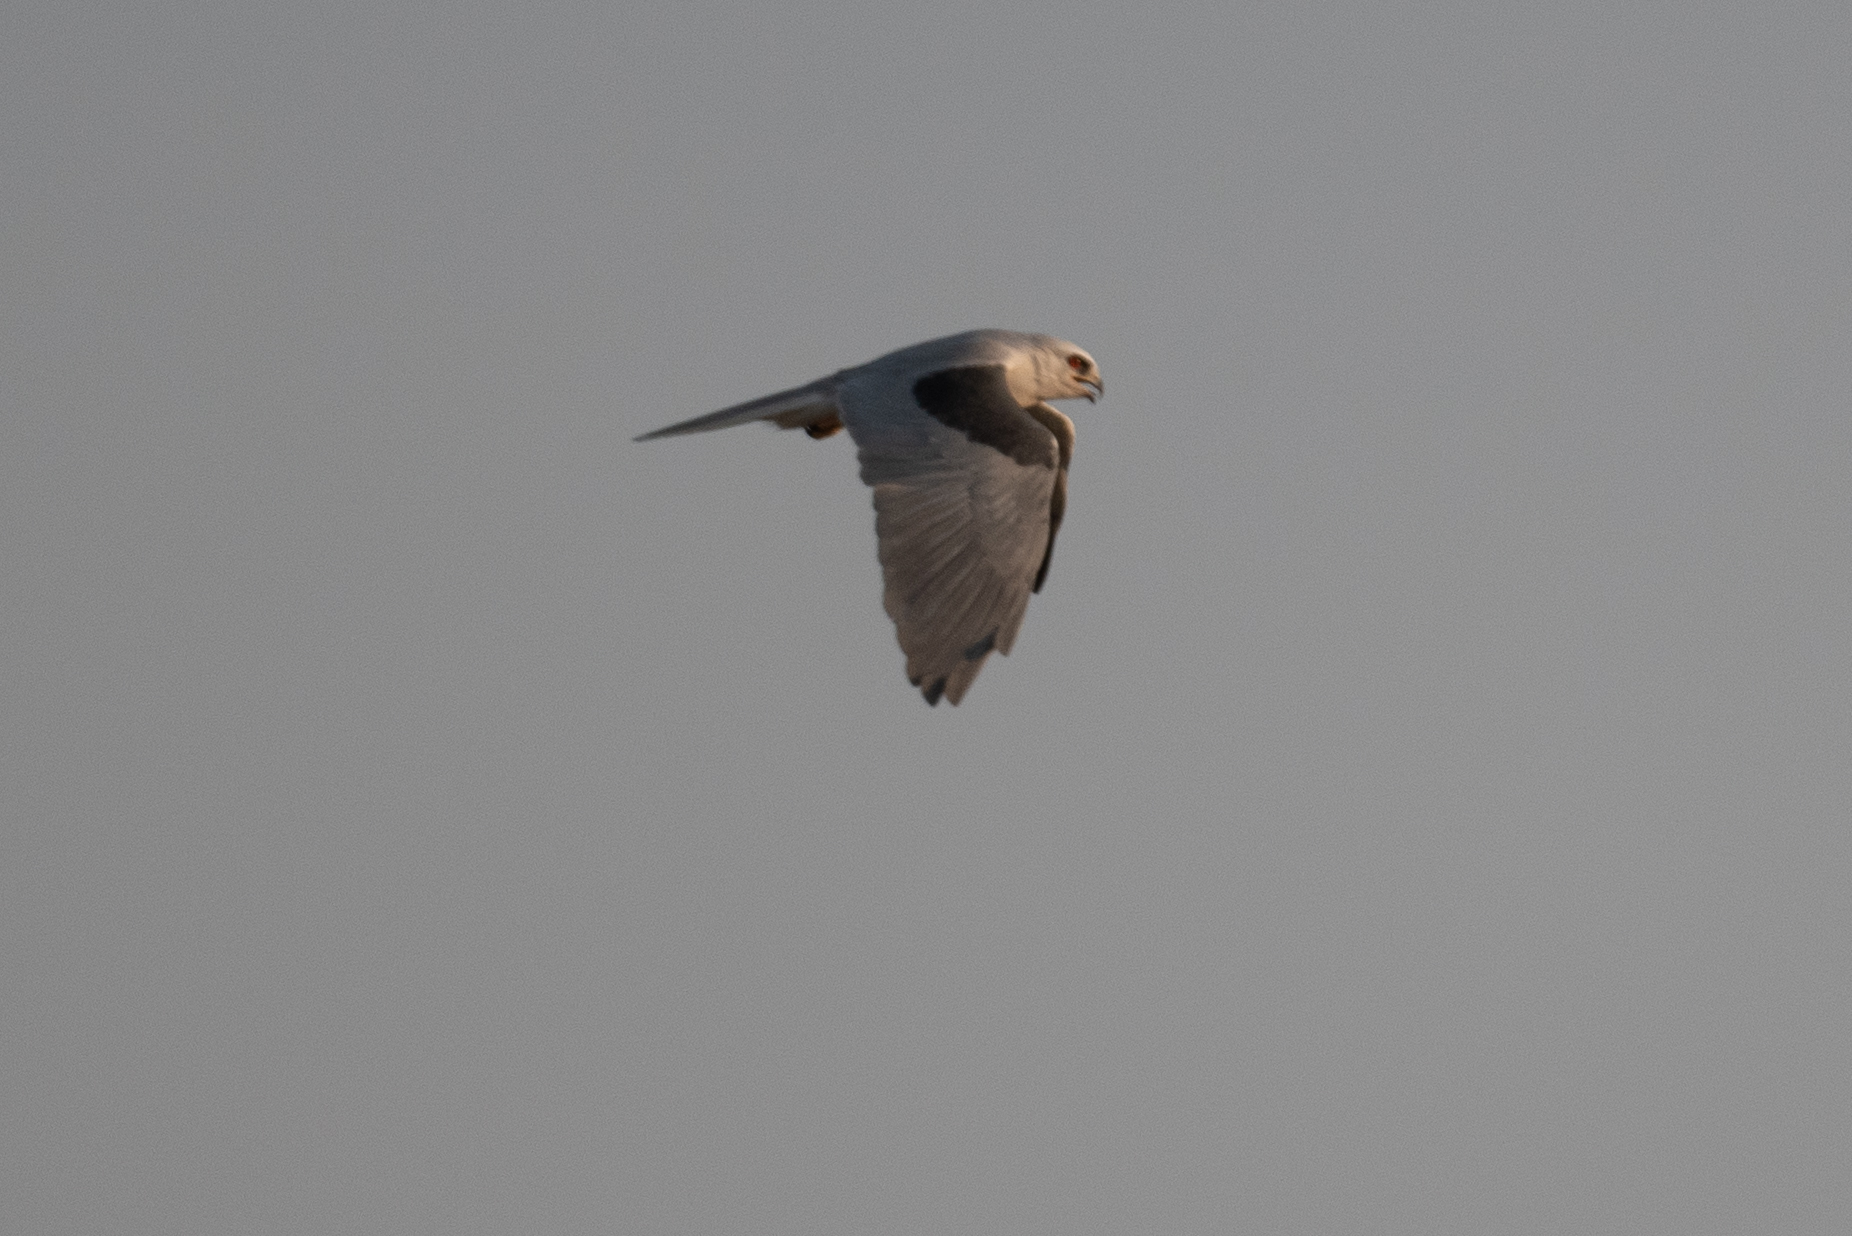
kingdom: Animalia
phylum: Chordata
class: Aves
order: Accipitriformes
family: Accipitridae
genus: Elanus
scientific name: Elanus leucurus
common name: White-tailed kite
